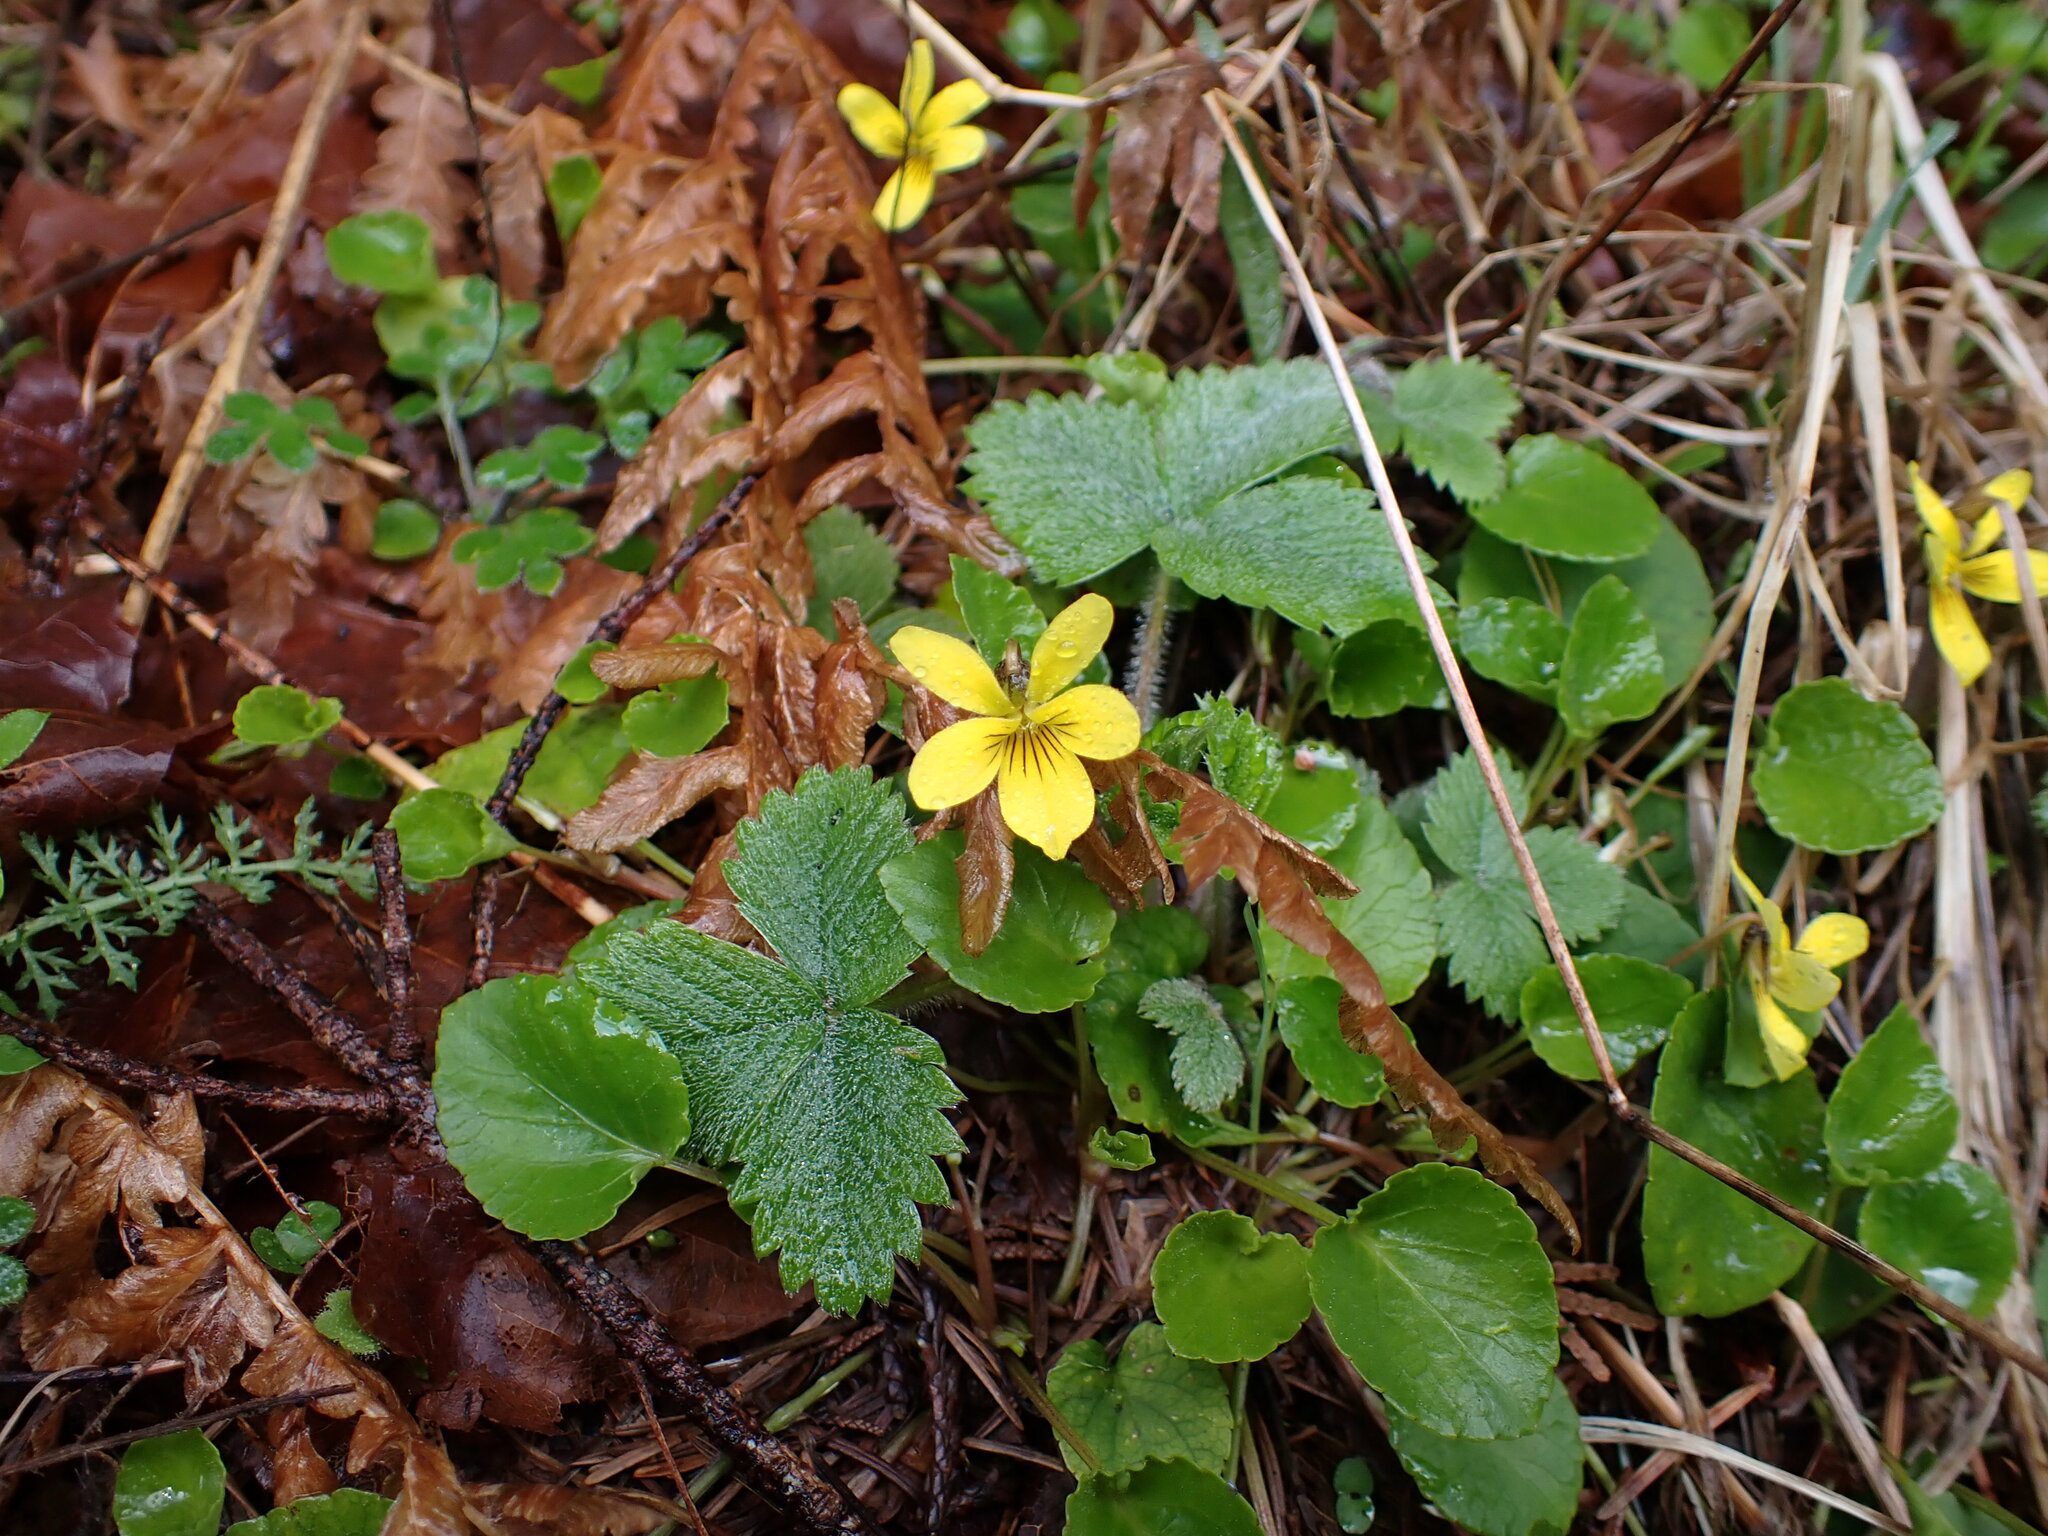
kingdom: Plantae
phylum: Tracheophyta
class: Magnoliopsida
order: Malpighiales
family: Violaceae
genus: Viola
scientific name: Viola sempervirens
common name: Evergreen violet
